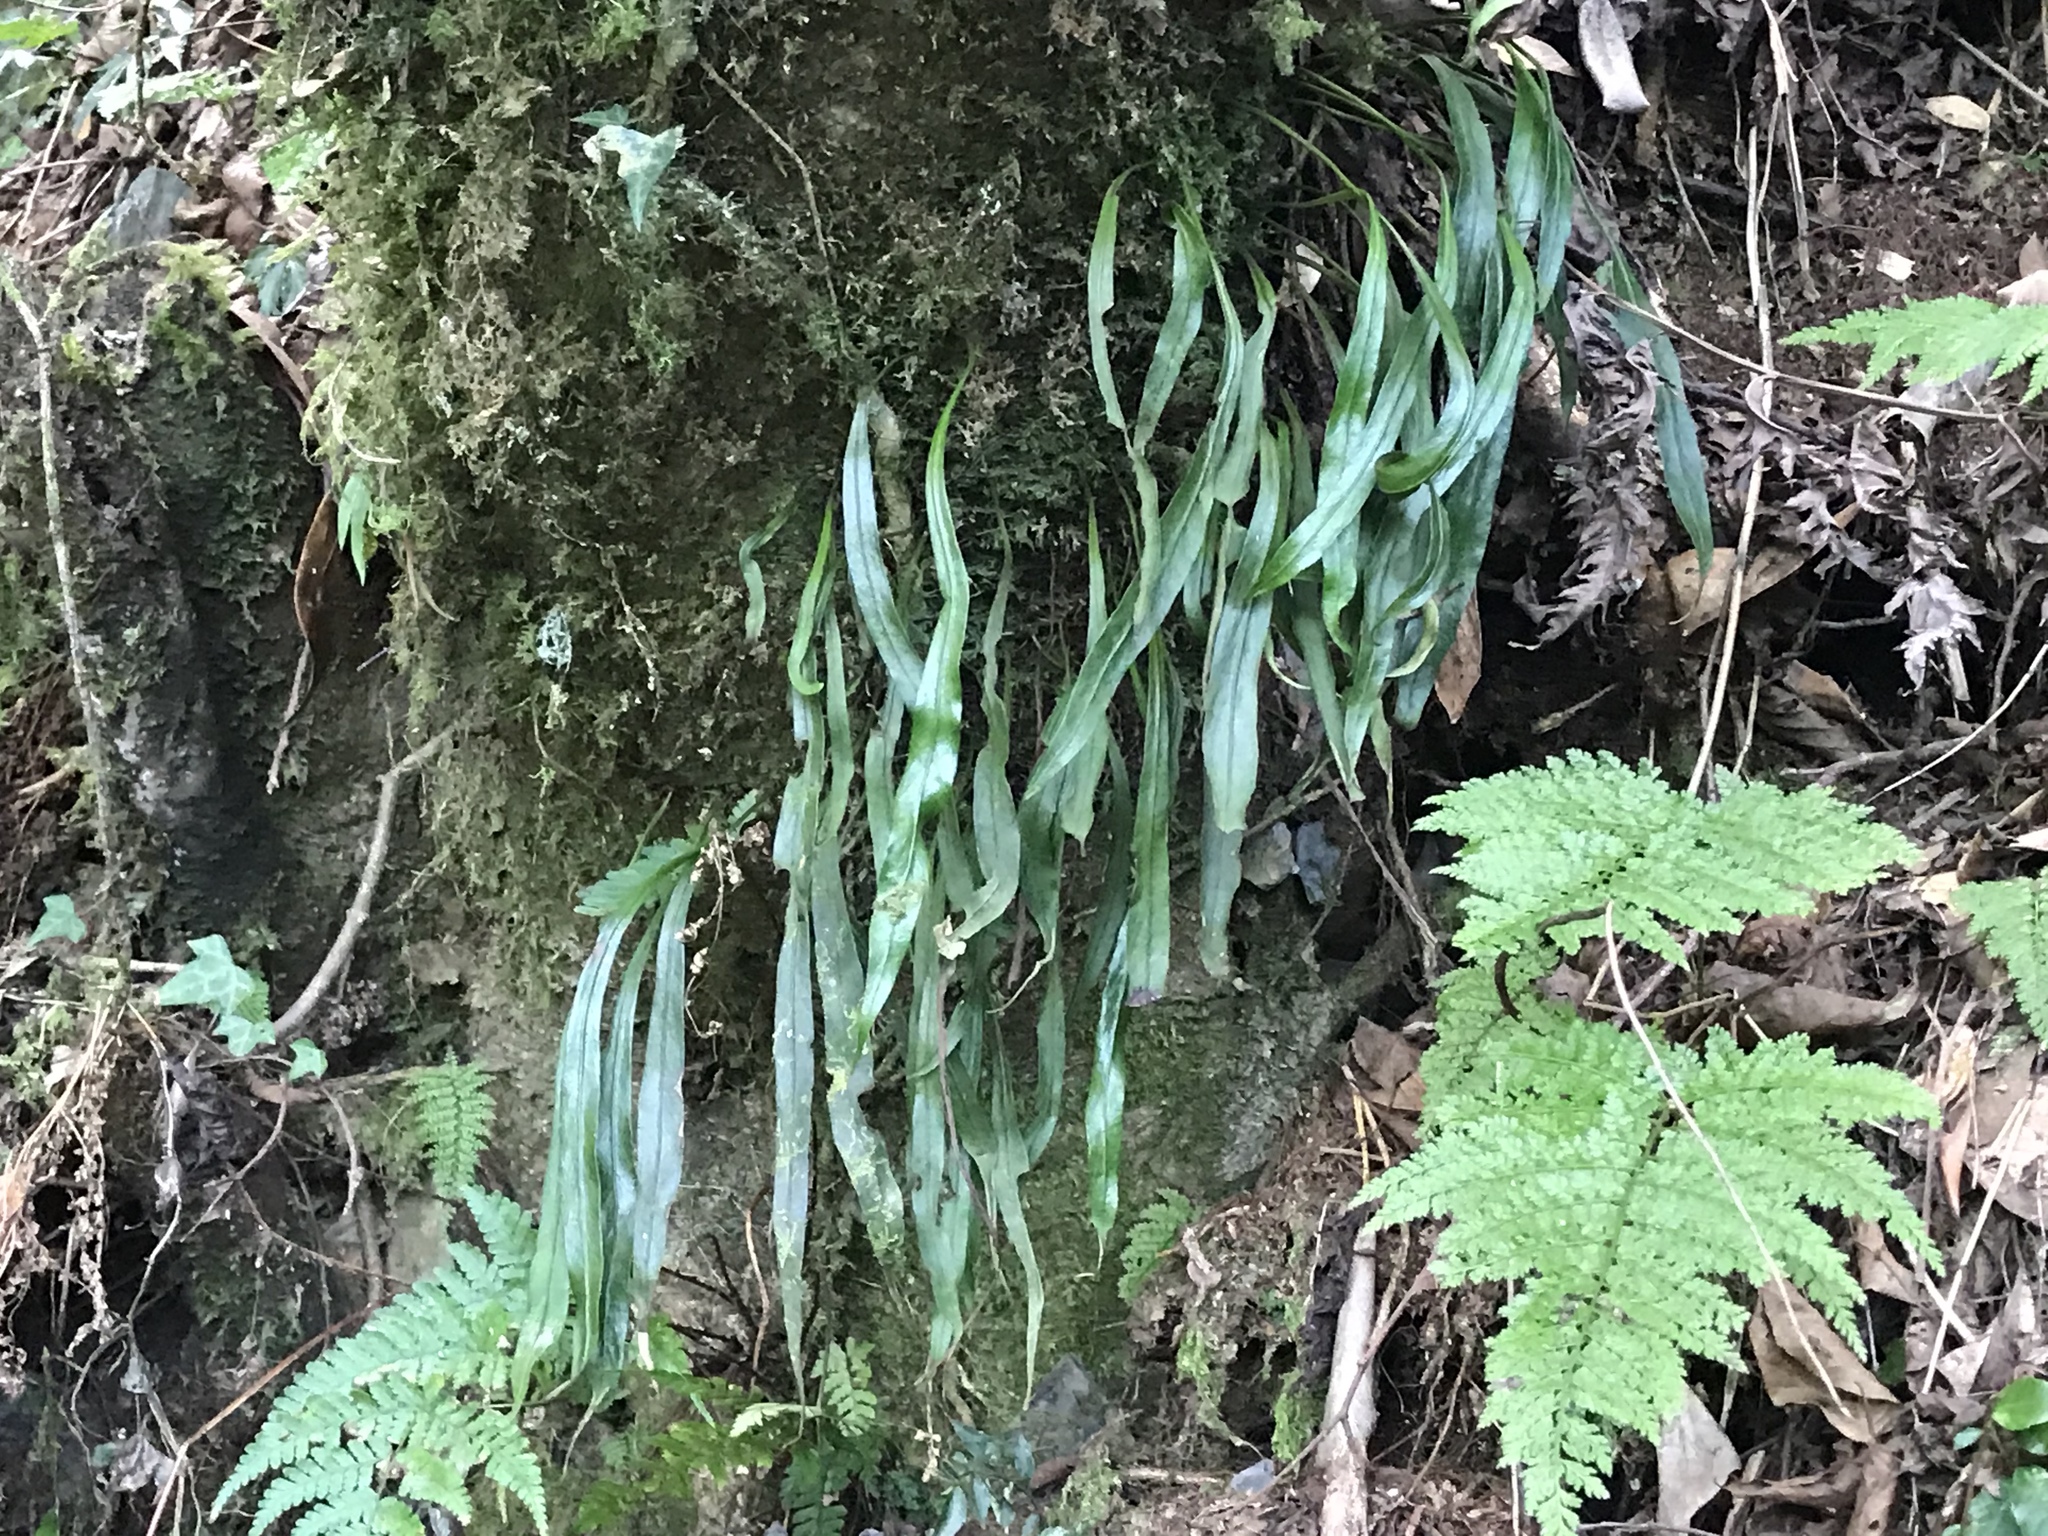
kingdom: Plantae
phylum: Tracheophyta
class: Polypodiopsida
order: Polypodiales
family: Polypodiaceae
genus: Loxogramme
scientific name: Loxogramme remotefrondigera
